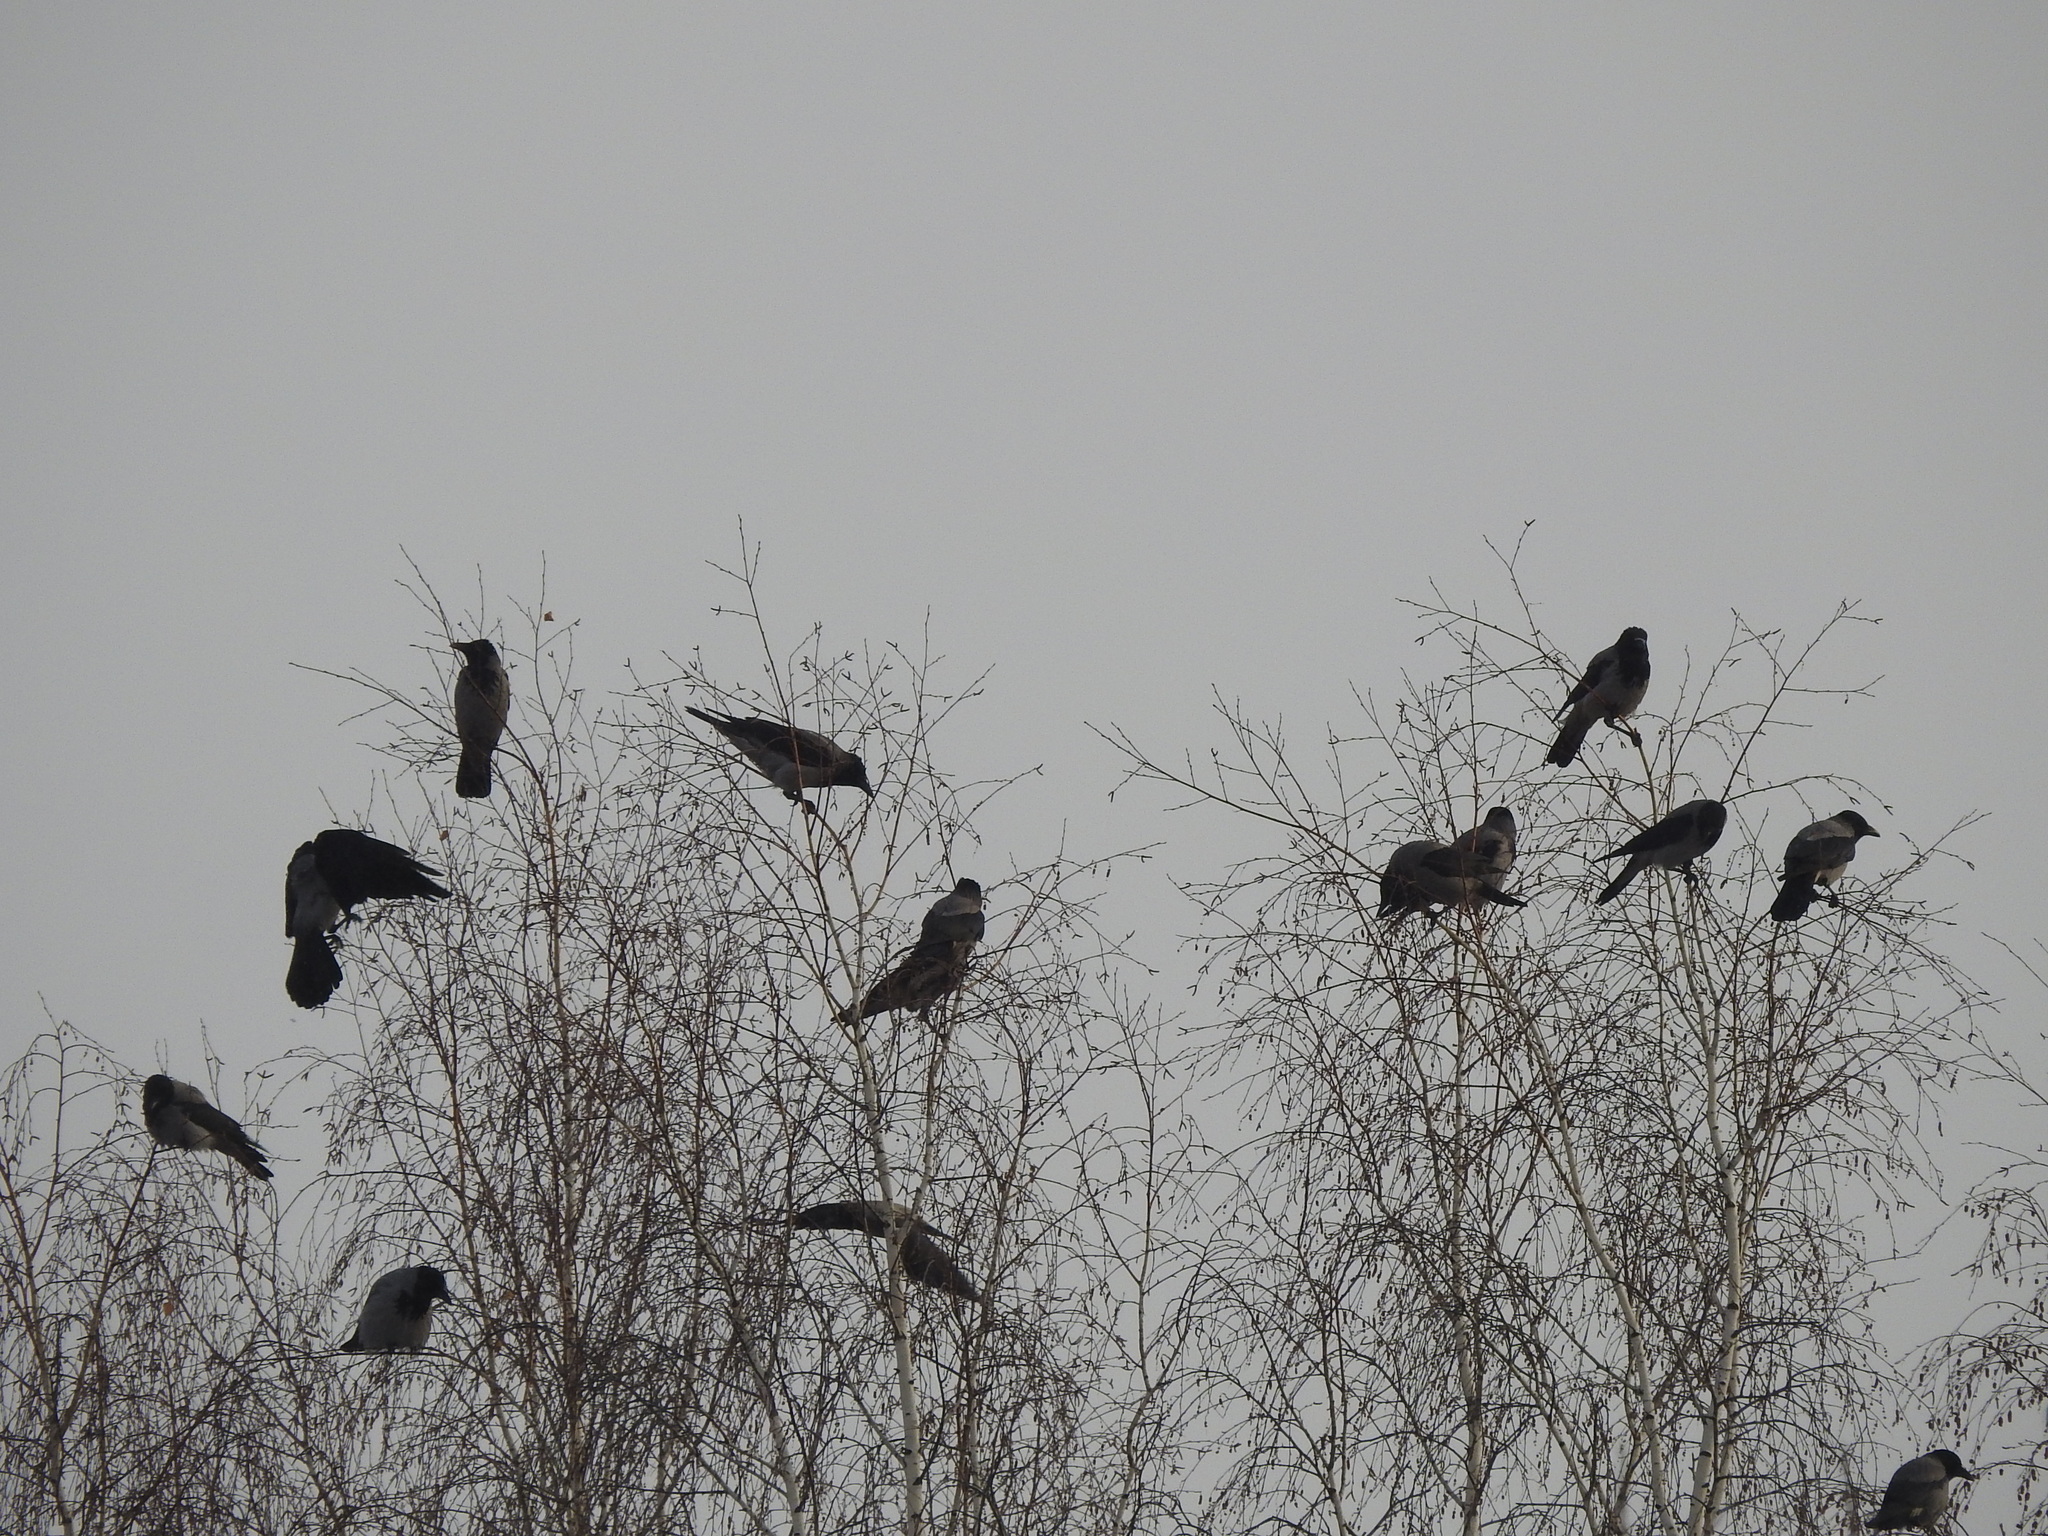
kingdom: Animalia
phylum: Chordata
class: Aves
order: Passeriformes
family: Corvidae
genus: Corvus
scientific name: Corvus cornix
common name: Hooded crow
